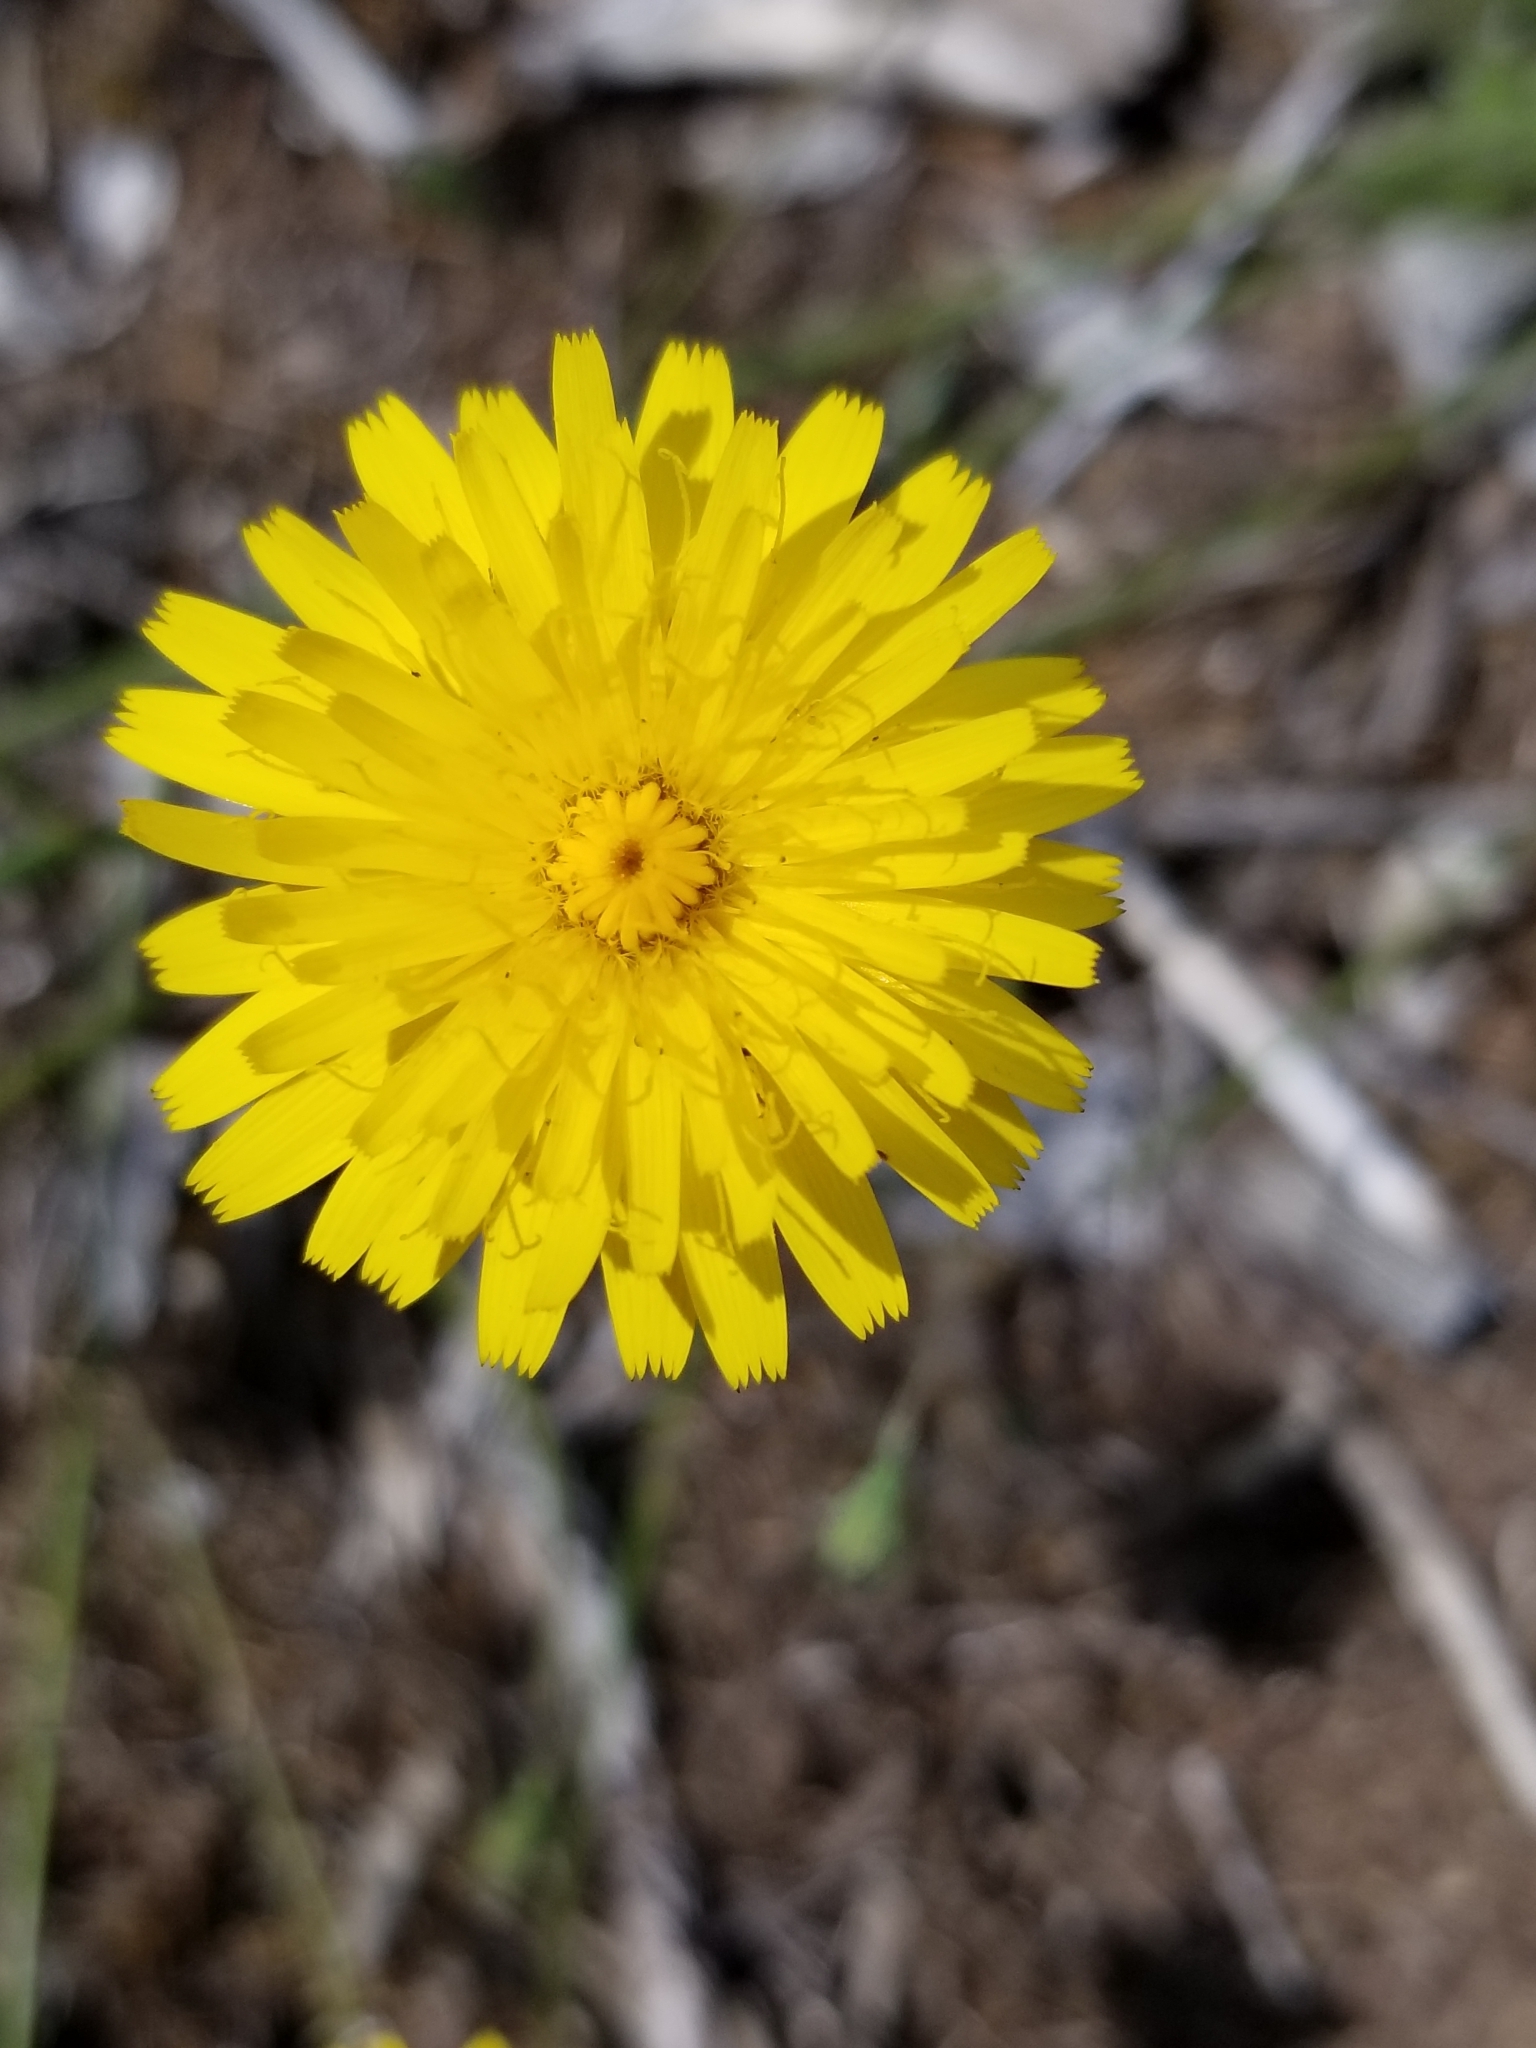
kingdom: Plantae
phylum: Tracheophyta
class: Magnoliopsida
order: Asterales
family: Asteraceae
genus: Hypochaeris
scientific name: Hypochaeris radicata
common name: Flatweed
